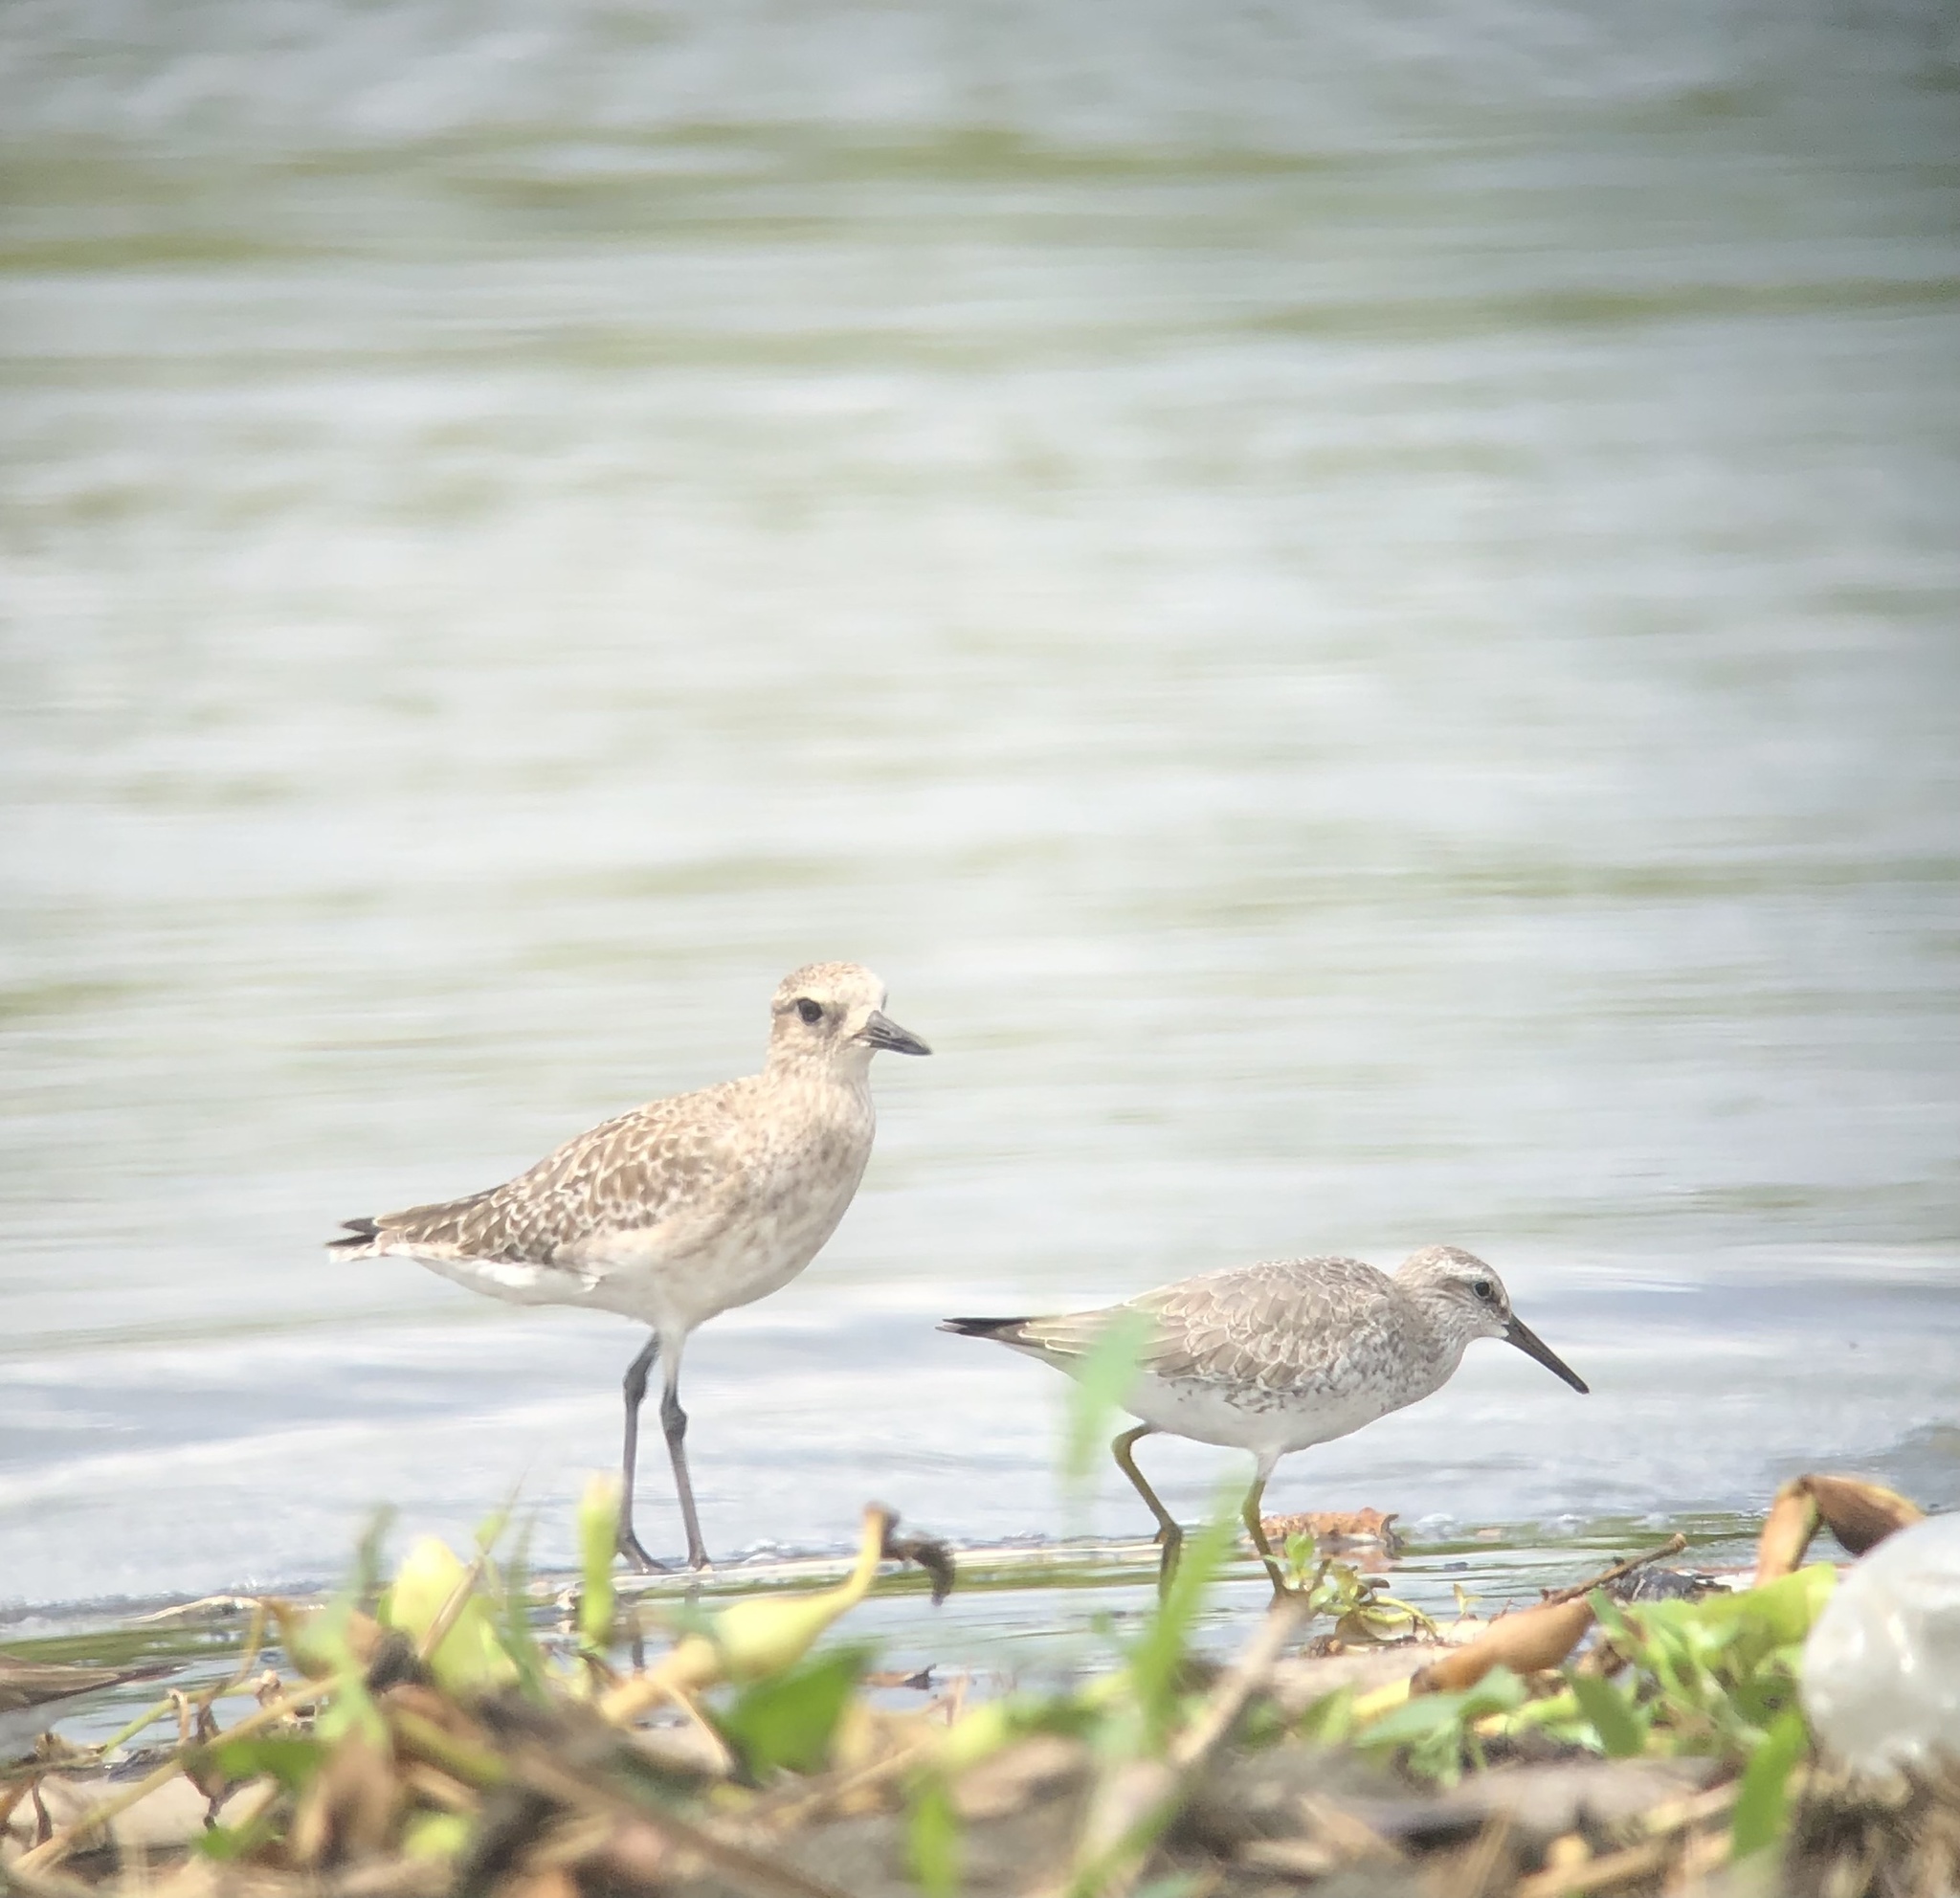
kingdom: Animalia
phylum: Chordata
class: Aves
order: Charadriiformes
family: Charadriidae
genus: Pluvialis
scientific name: Pluvialis squatarola
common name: Grey plover
